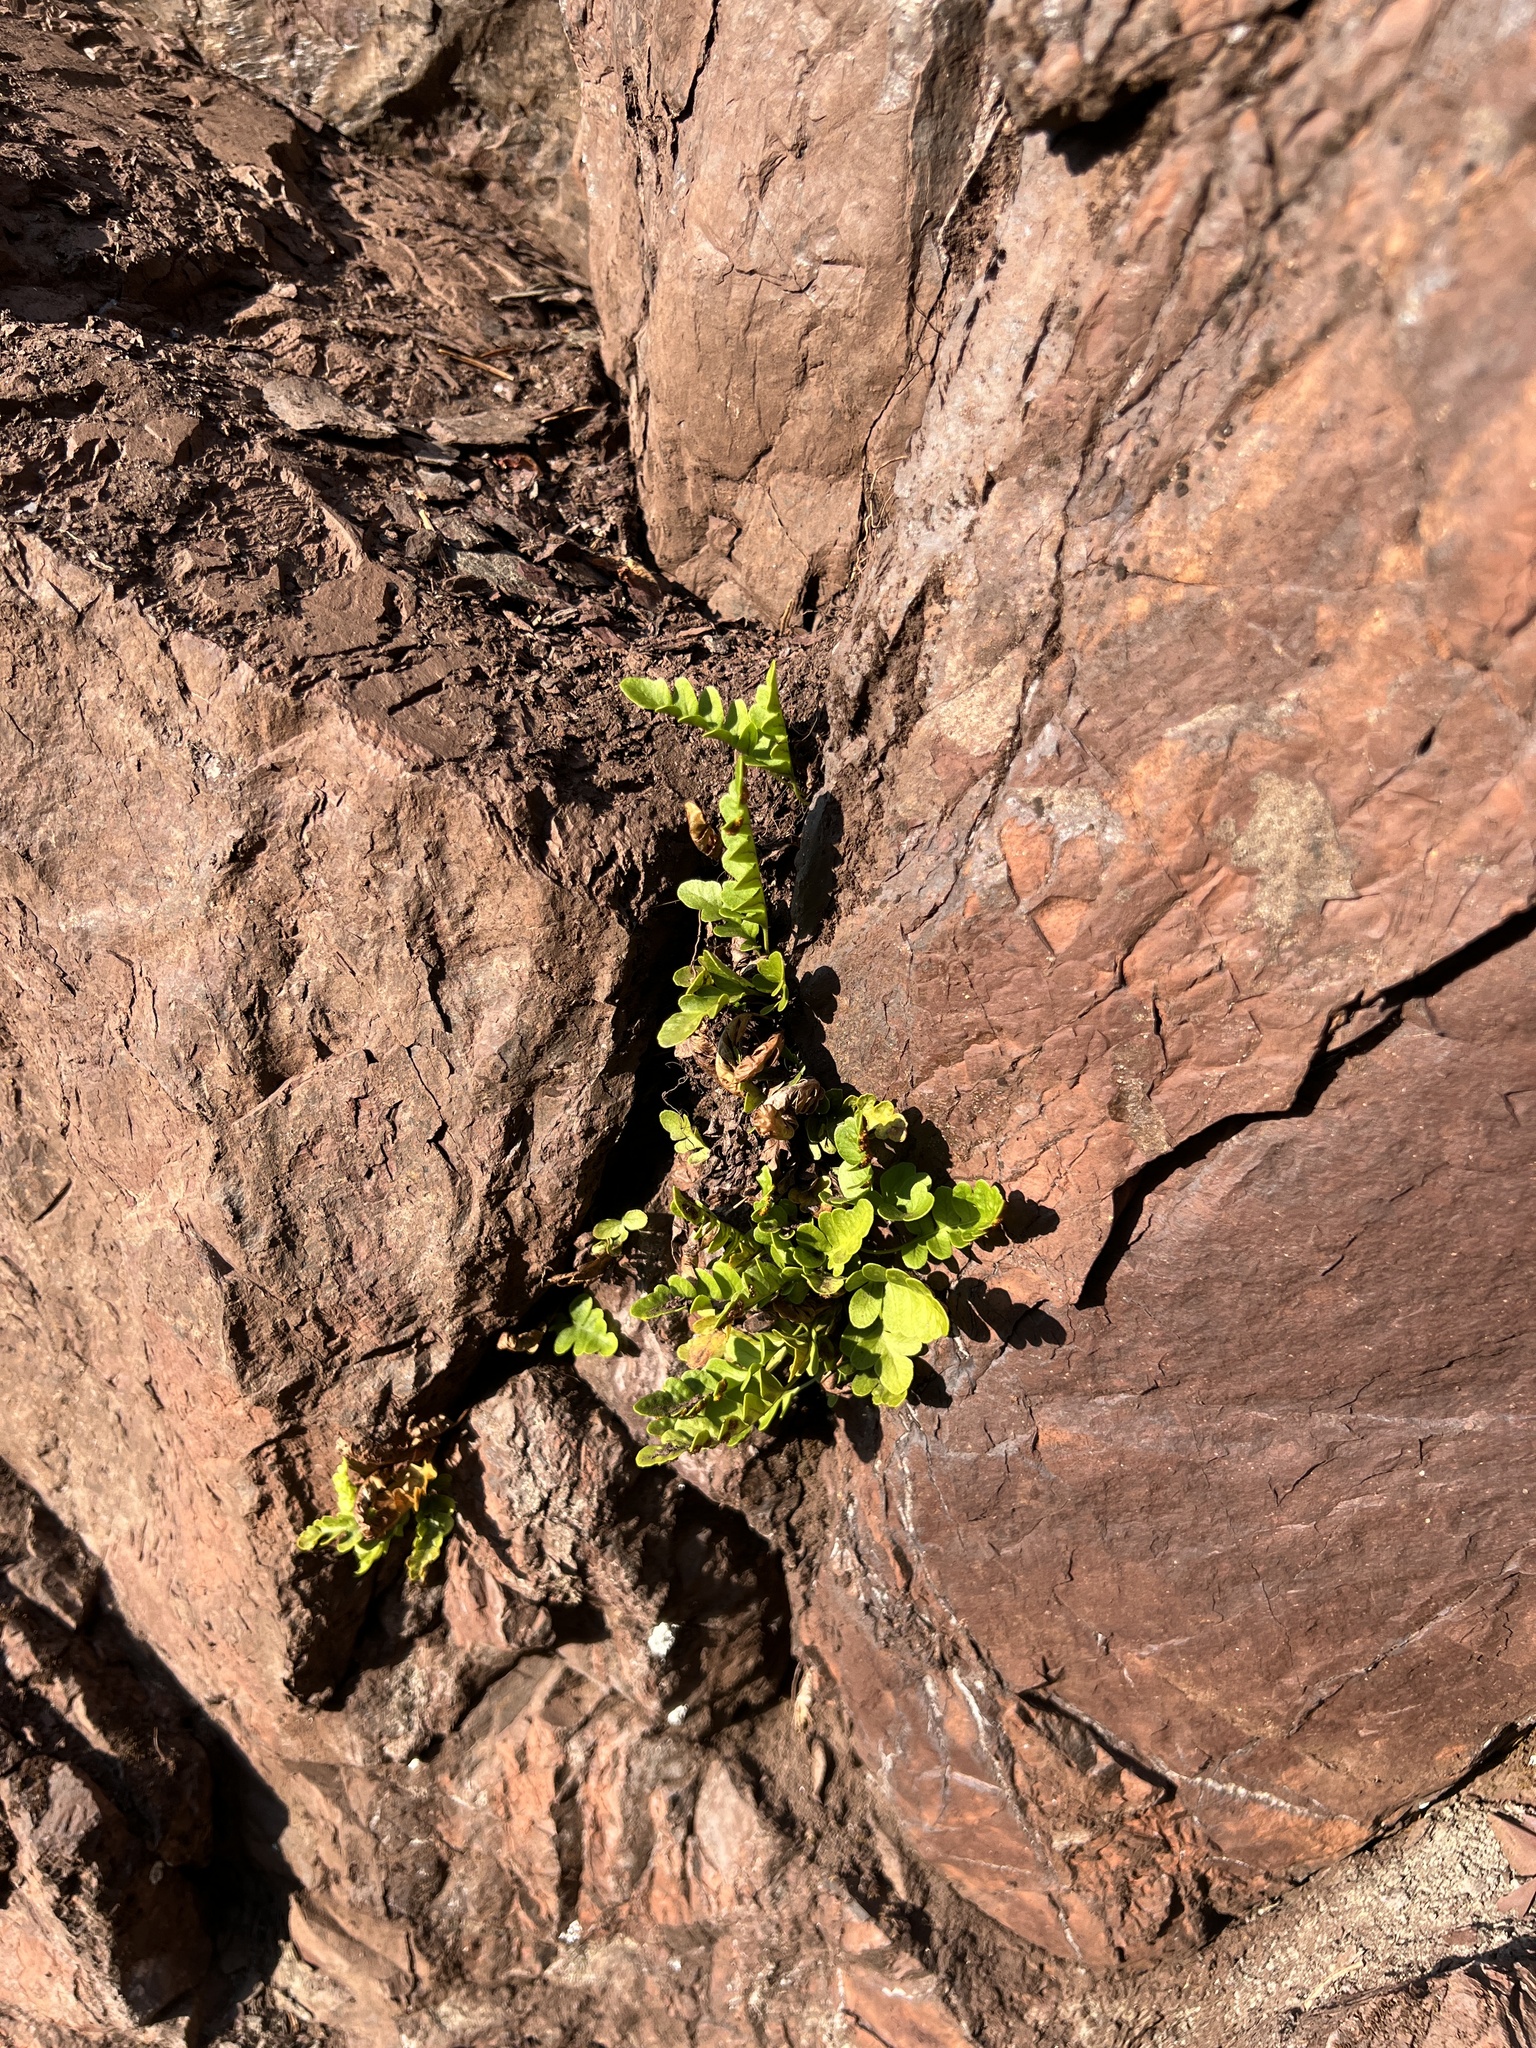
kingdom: Plantae
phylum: Tracheophyta
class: Polypodiopsida
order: Polypodiales
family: Polypodiaceae
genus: Polypodium
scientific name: Polypodium amorphum
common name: Pacific polypody
